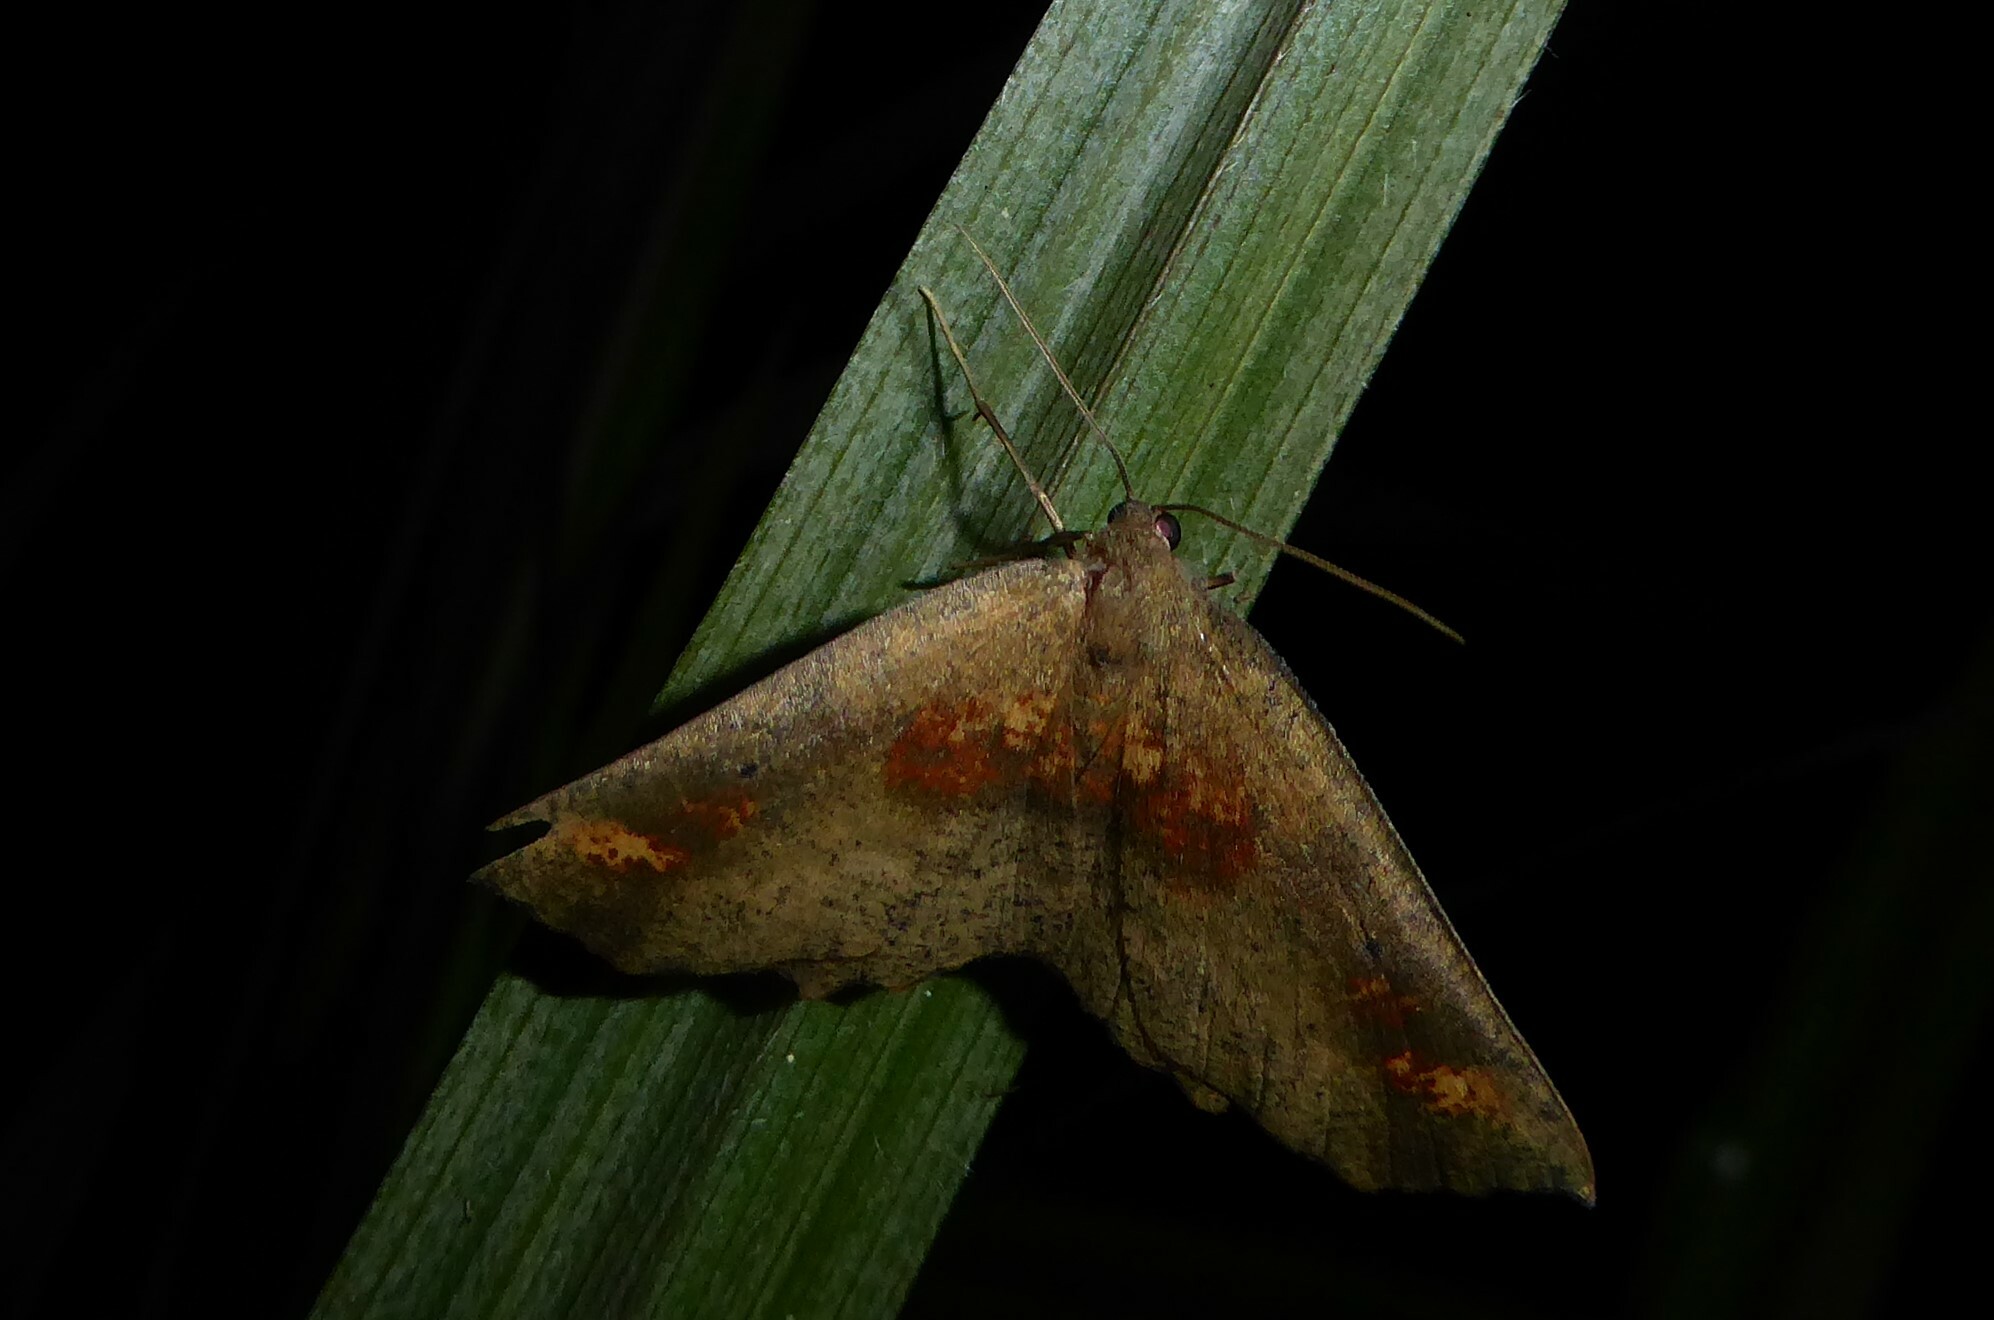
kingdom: Animalia
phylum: Arthropoda
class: Insecta
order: Lepidoptera
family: Geometridae
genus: Xyridacma
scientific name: Xyridacma ustaria
